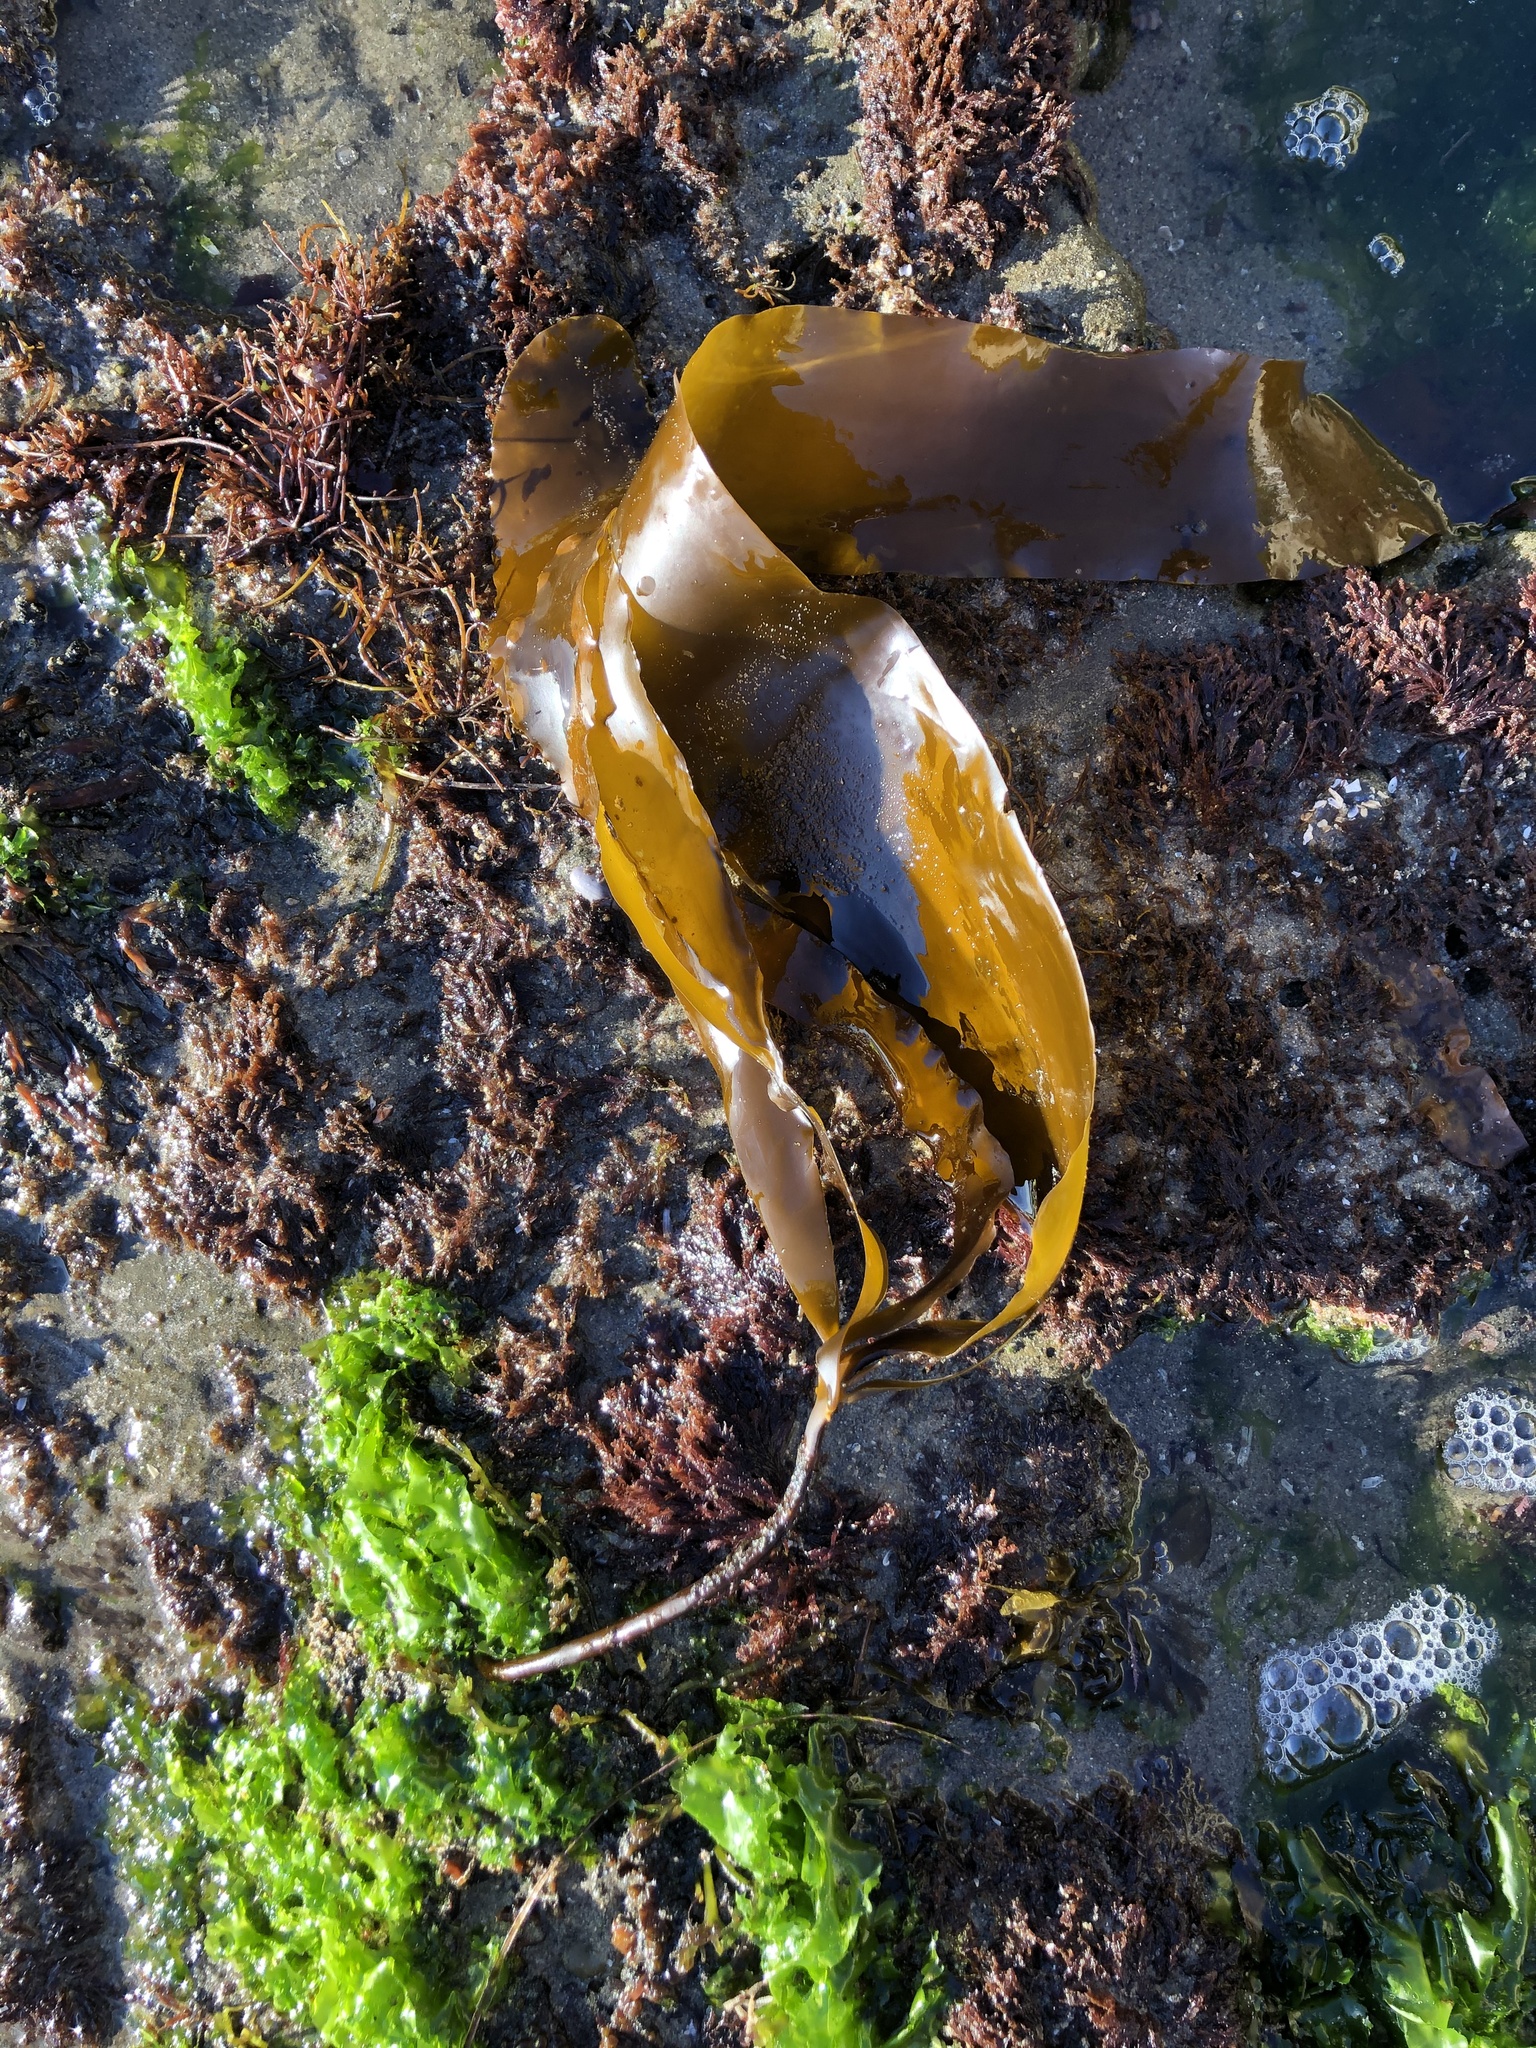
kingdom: Chromista
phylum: Ochrophyta
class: Phaeophyceae
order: Laminariales
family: Alariaceae
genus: Pterygophora
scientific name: Pterygophora californica
